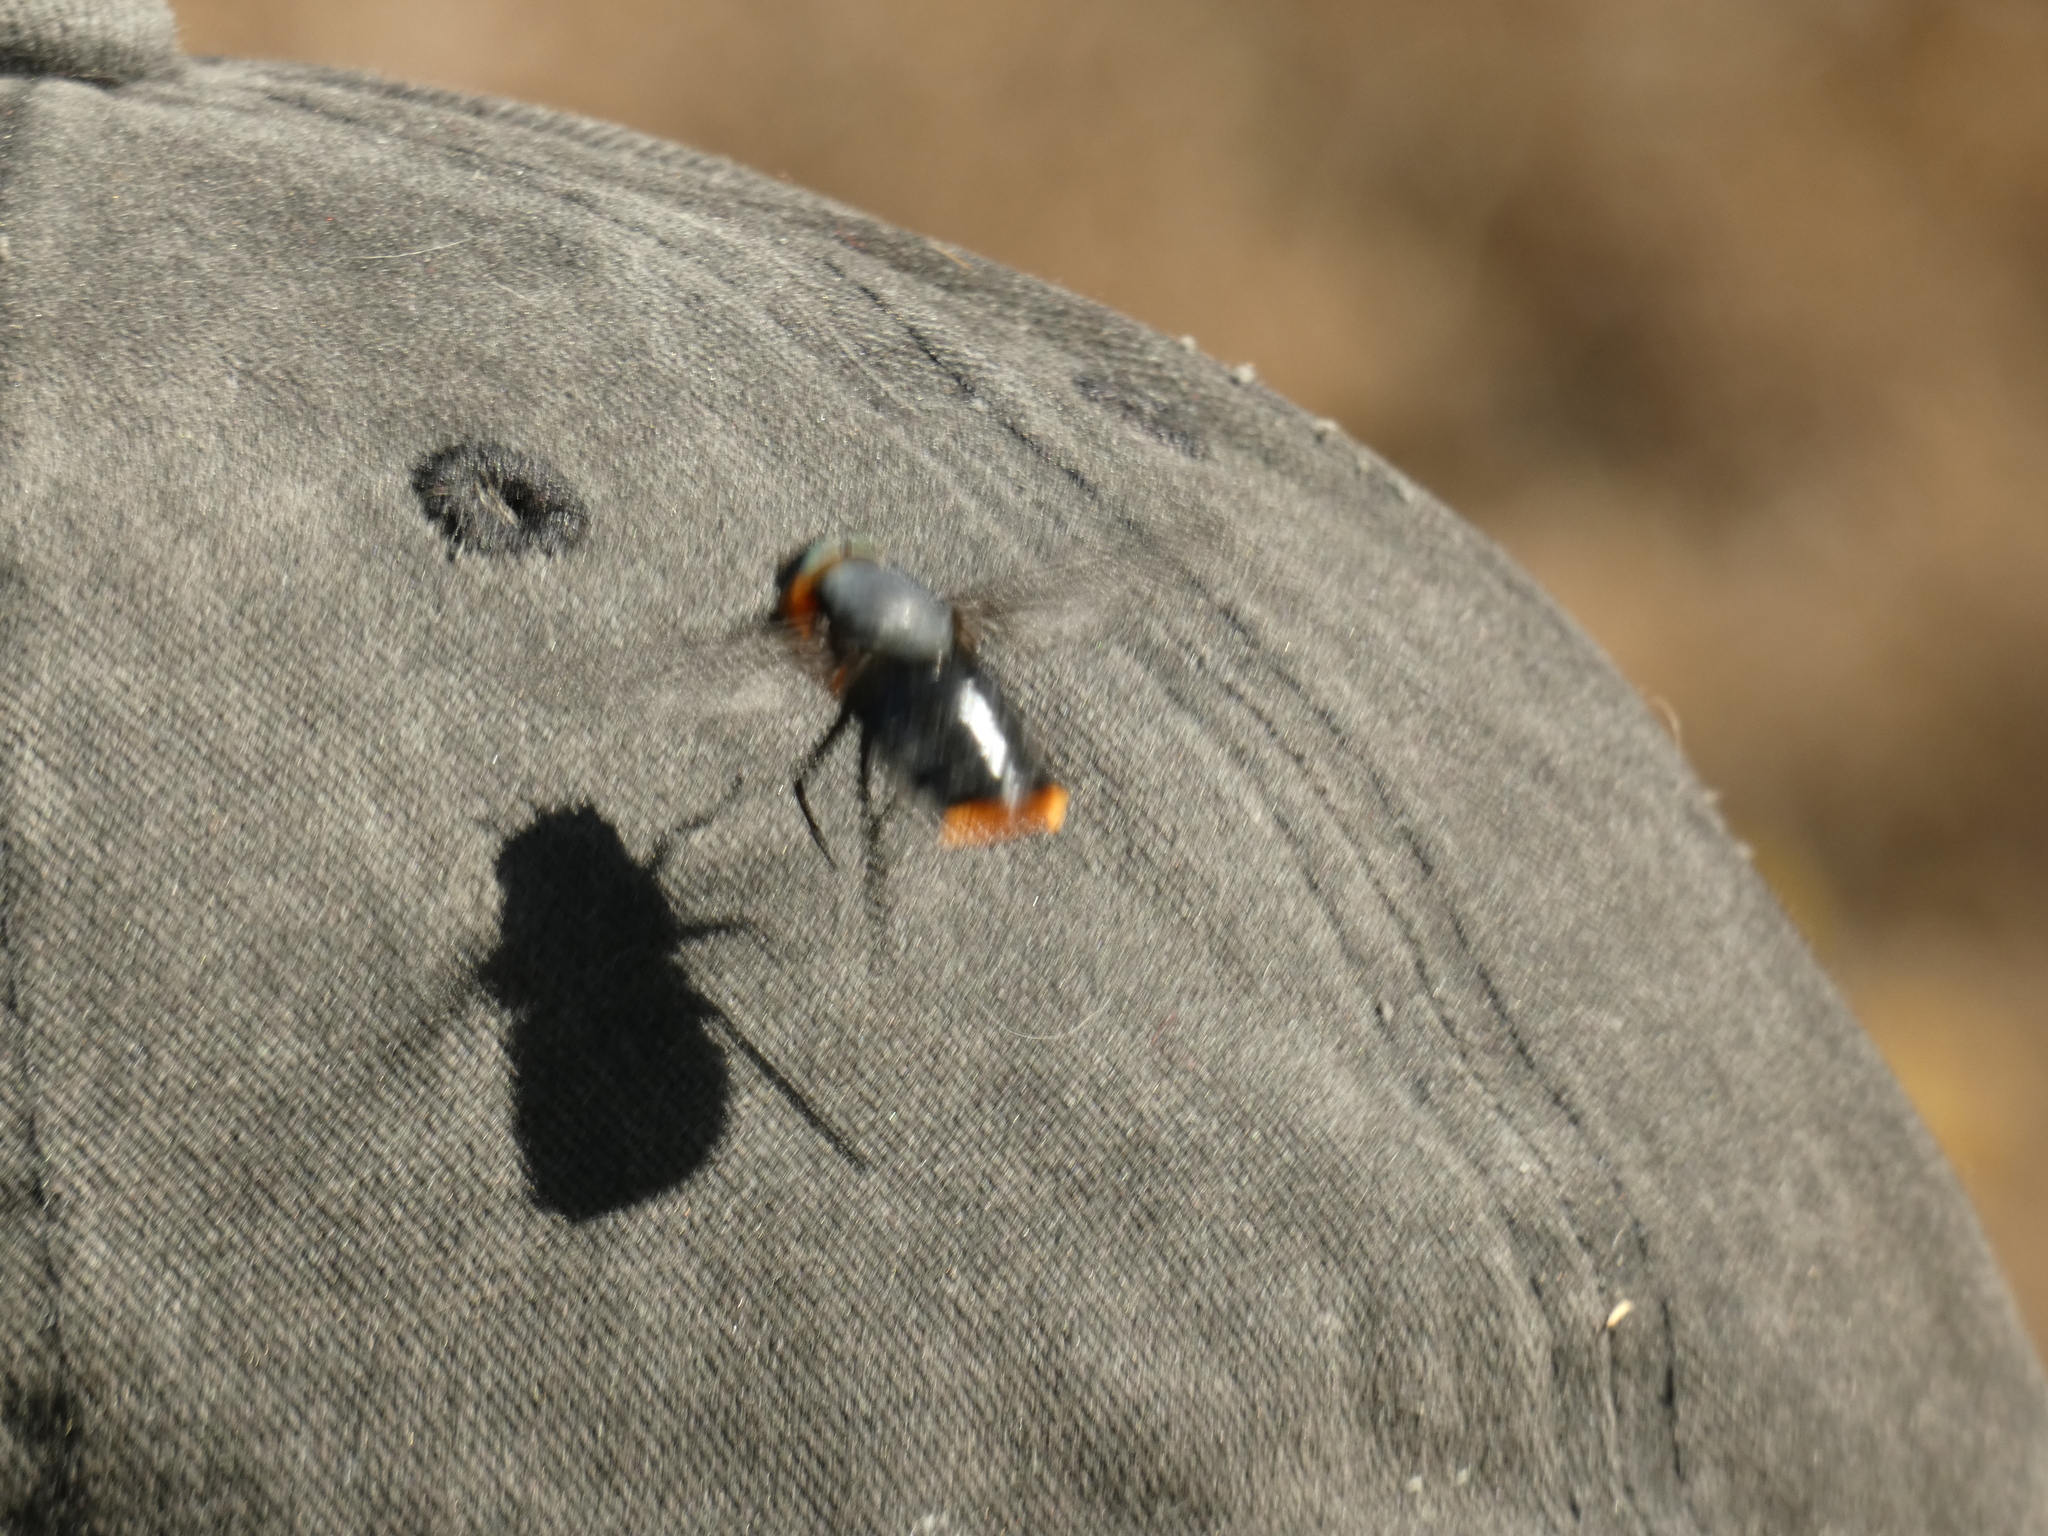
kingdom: Animalia
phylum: Arthropoda
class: Insecta
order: Diptera
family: Tabanidae
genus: Osca
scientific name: Osca lata
